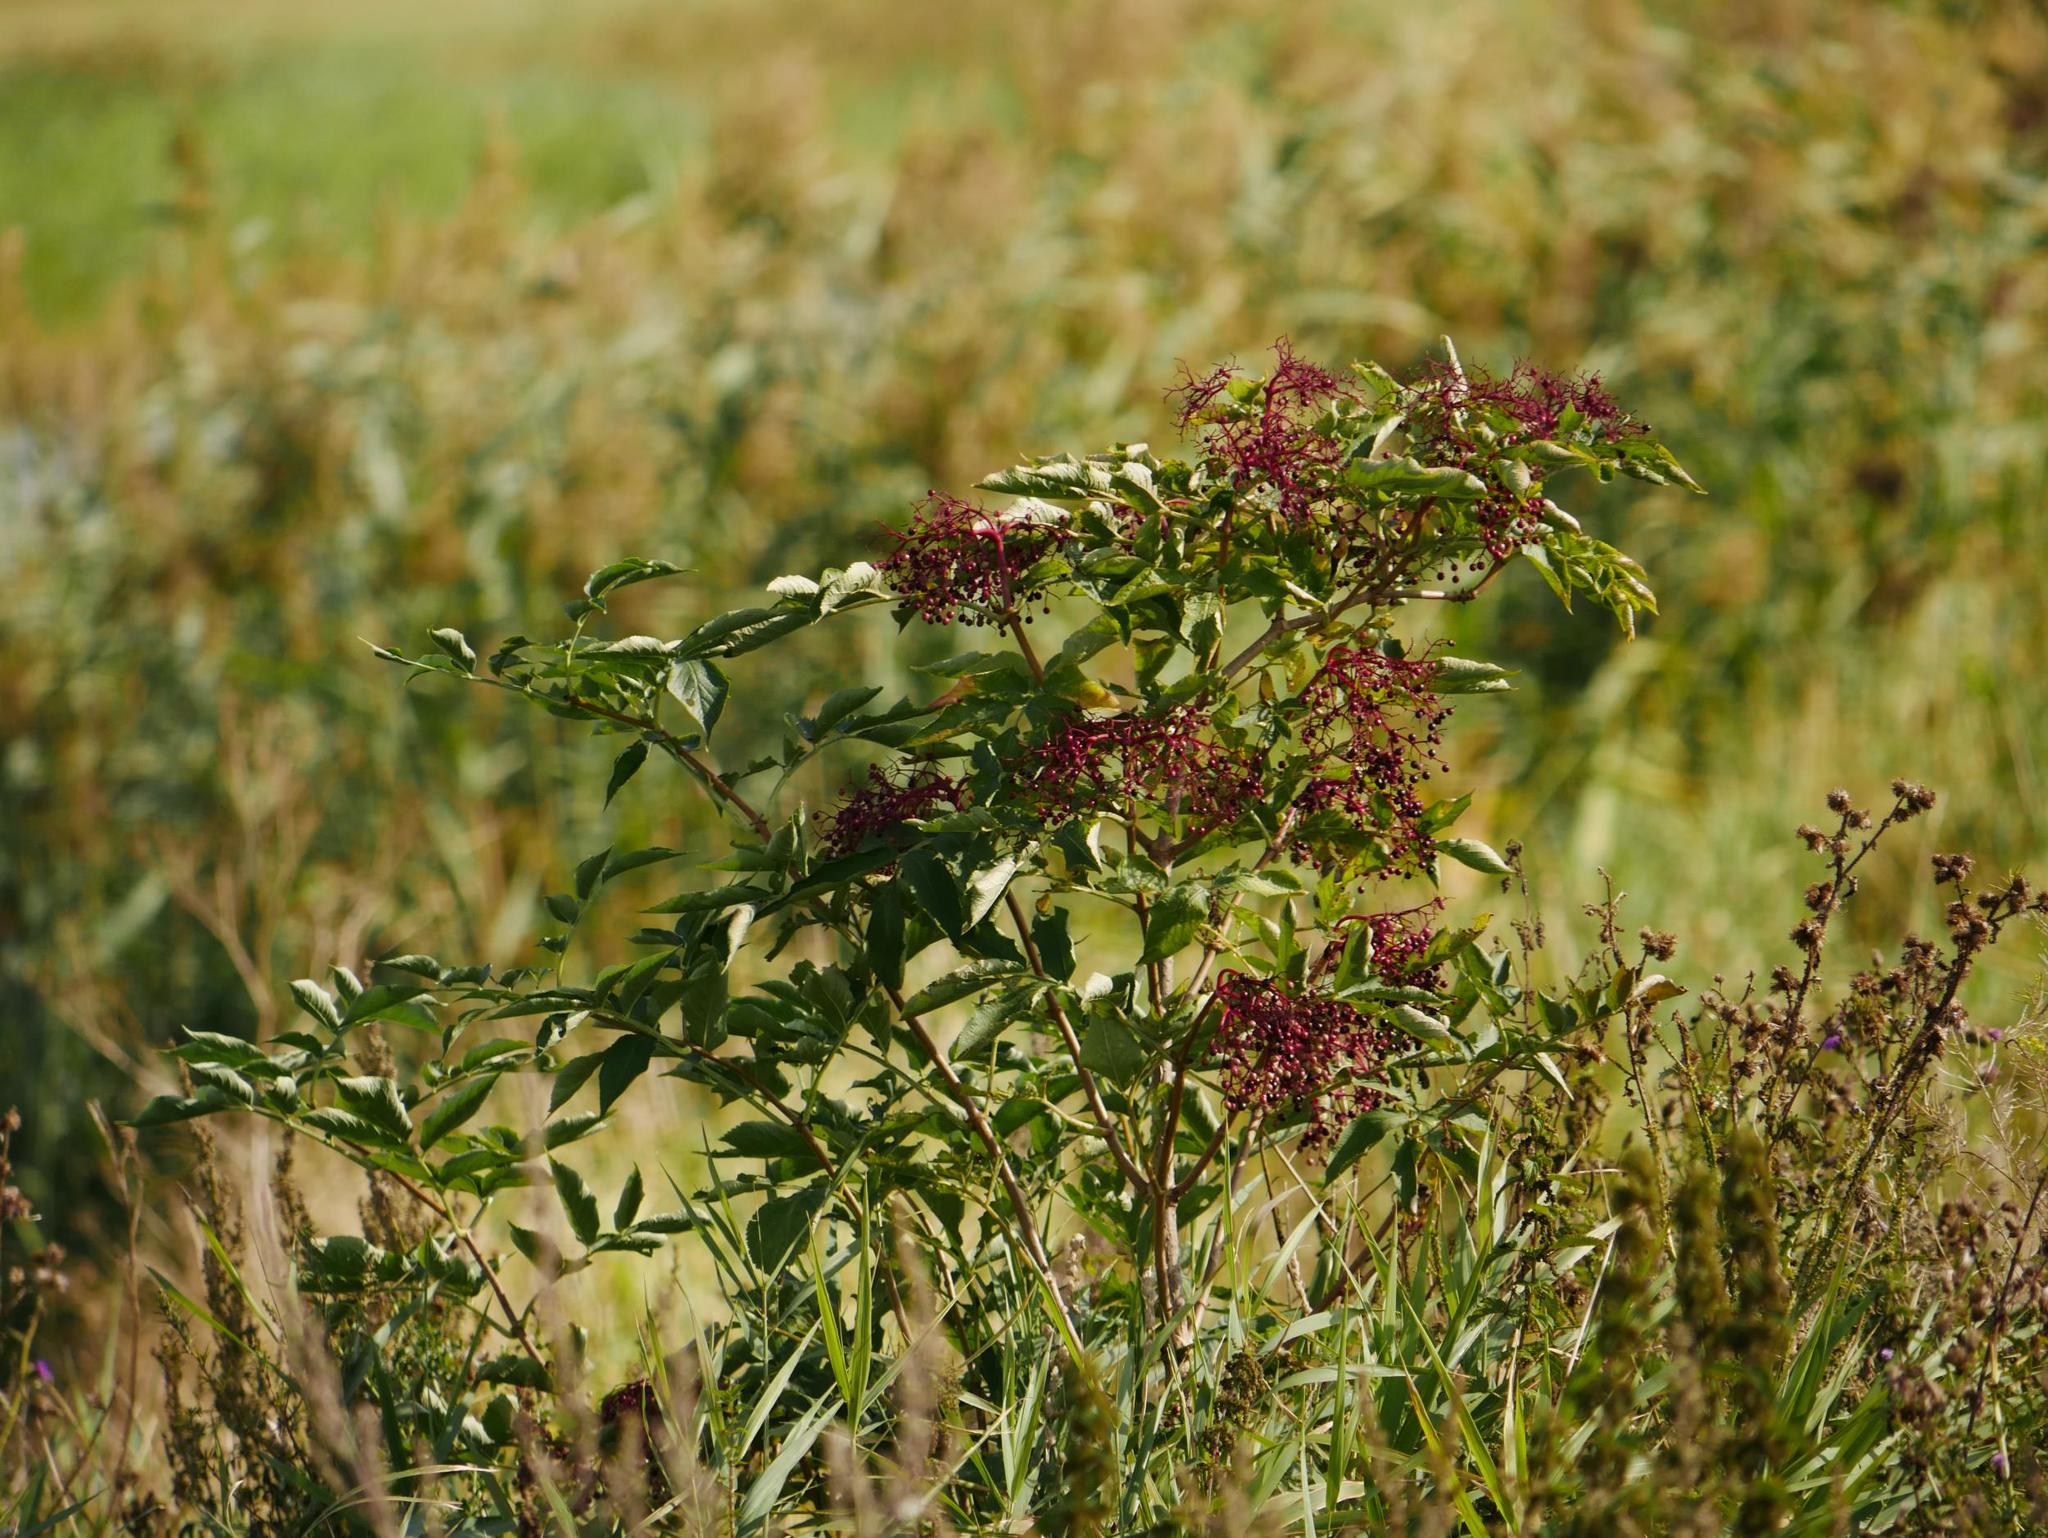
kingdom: Plantae
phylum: Tracheophyta
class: Magnoliopsida
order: Dipsacales
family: Viburnaceae
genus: Sambucus
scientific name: Sambucus nigra
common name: Elder
